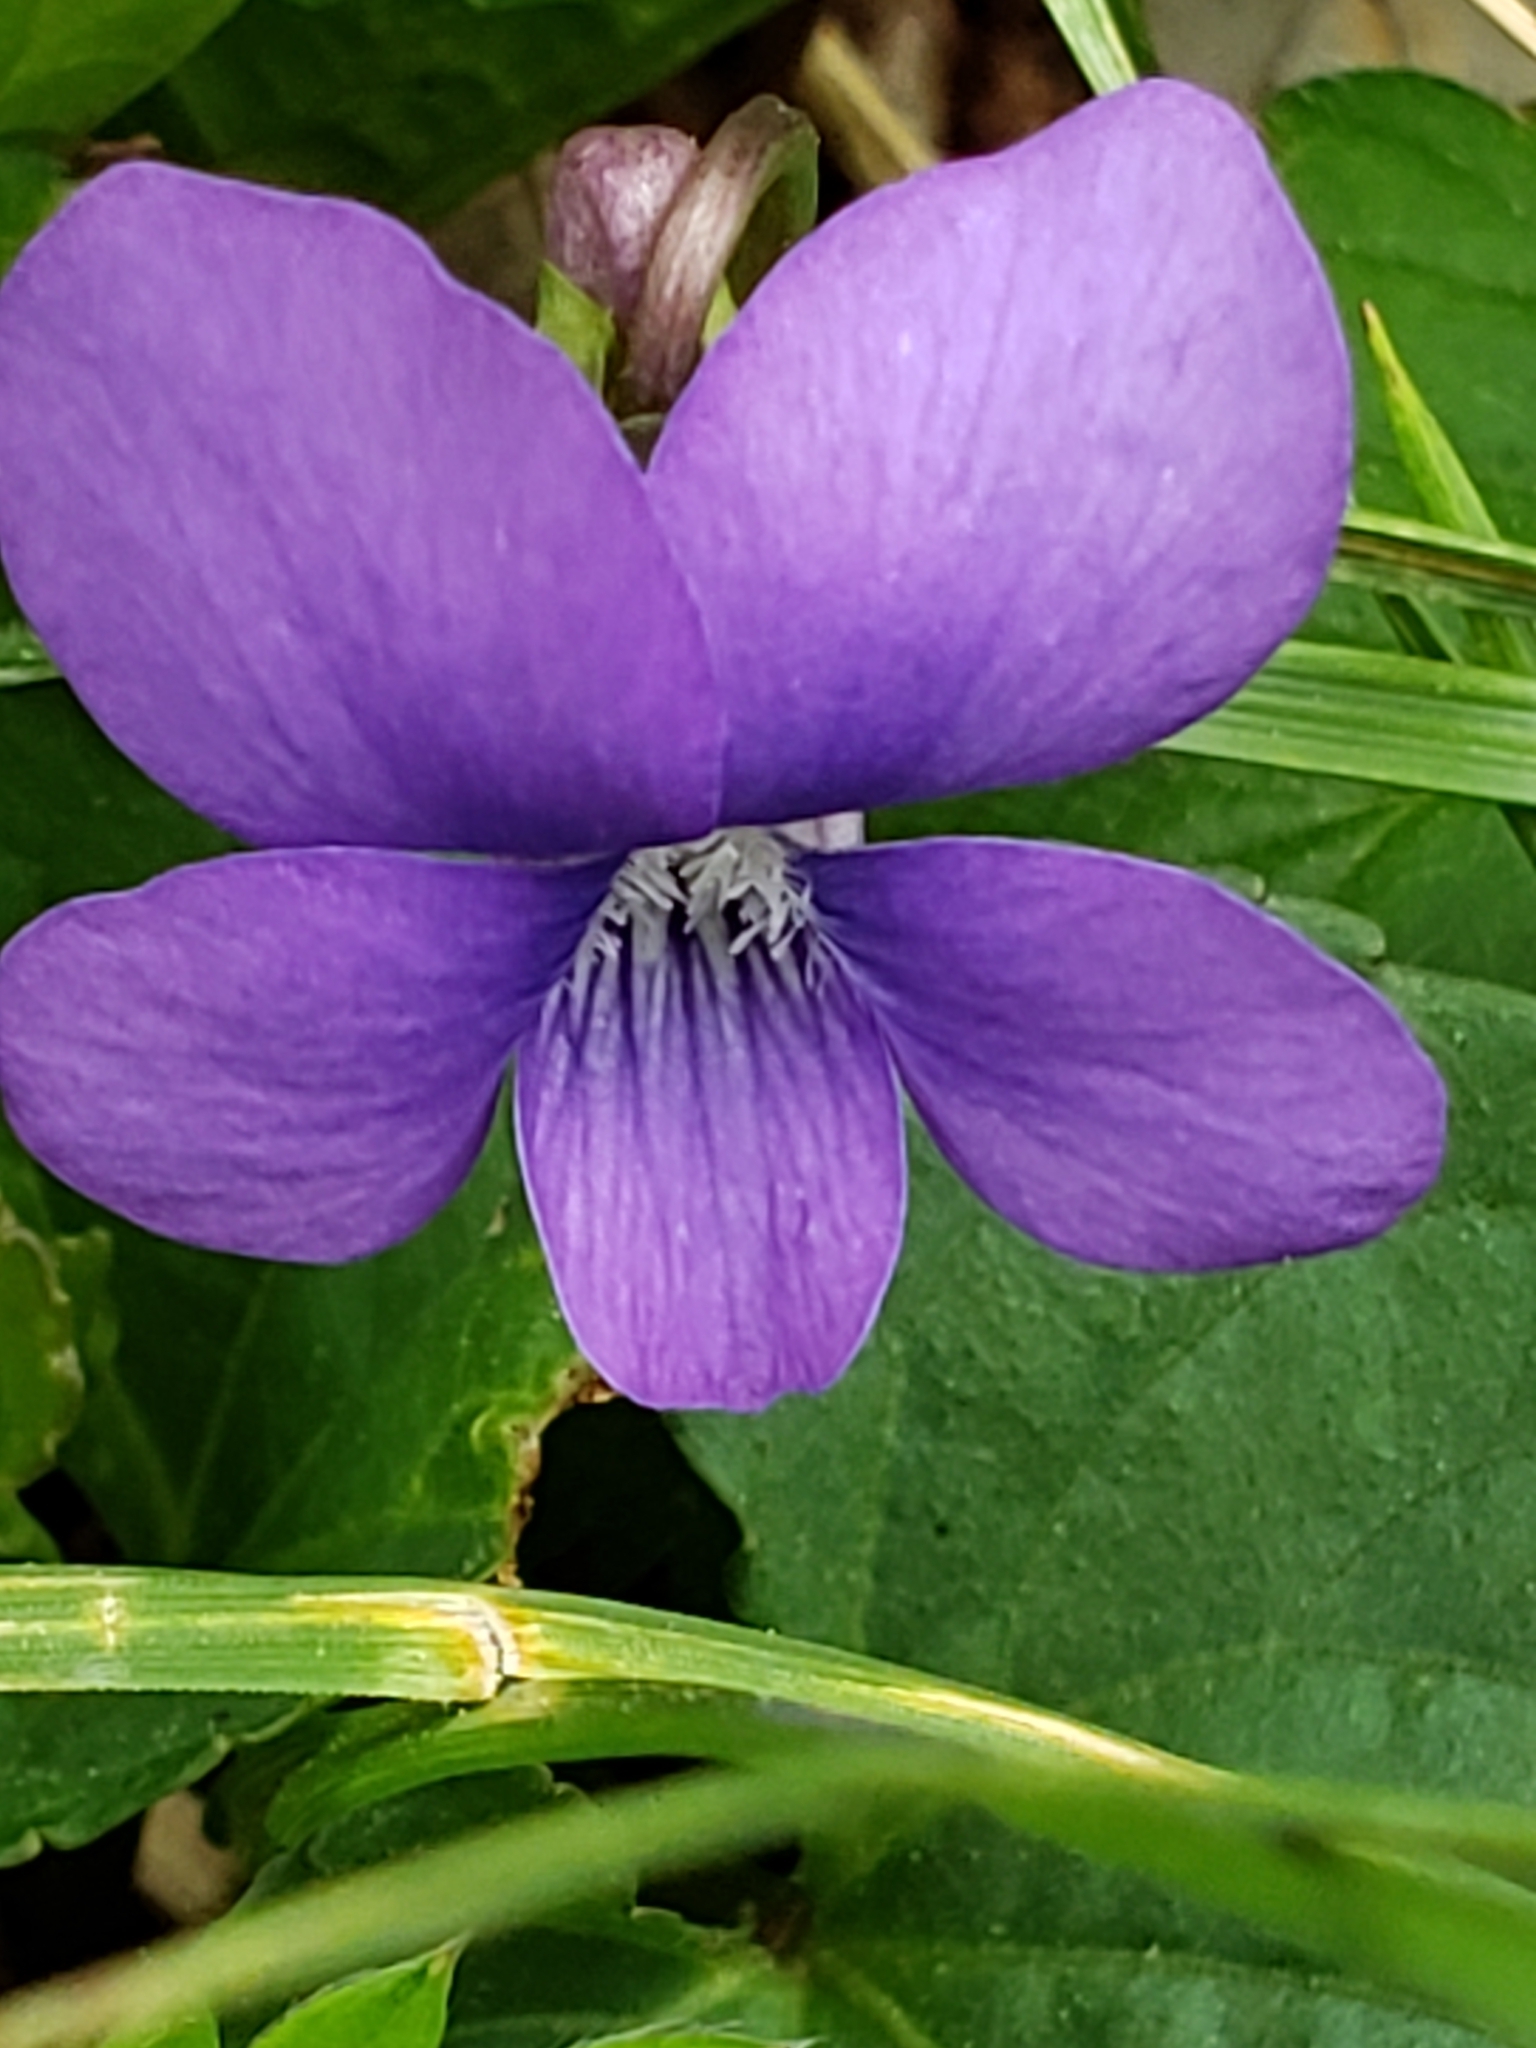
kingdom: Plantae
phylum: Tracheophyta
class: Magnoliopsida
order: Malpighiales
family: Violaceae
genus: Viola
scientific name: Viola sororia
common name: Dooryard violet
